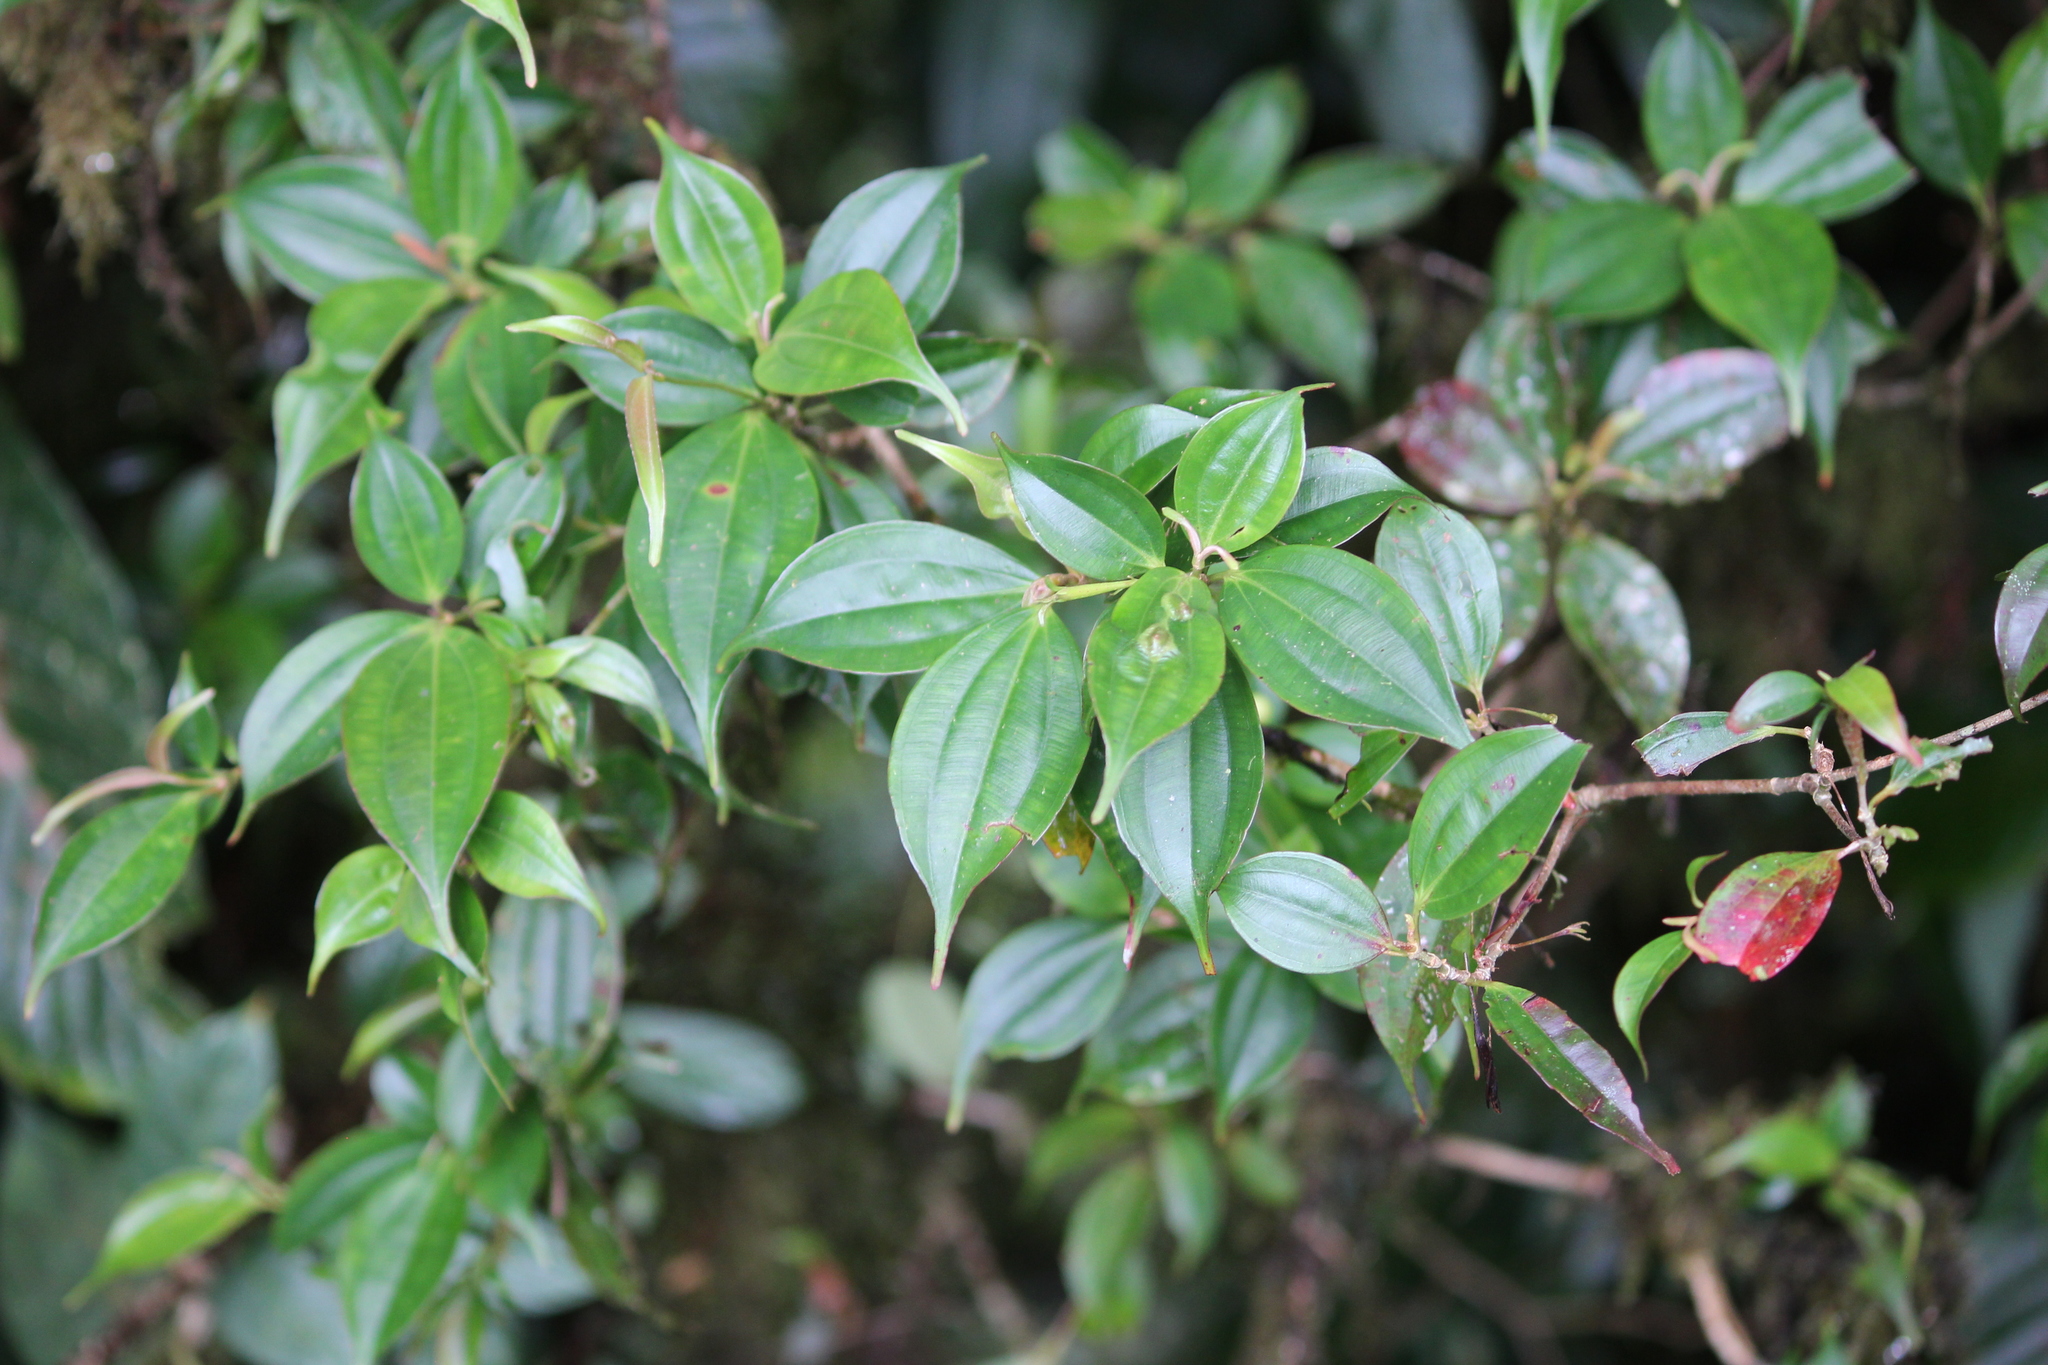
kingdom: Plantae
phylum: Tracheophyta
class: Magnoliopsida
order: Myrtales
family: Melastomataceae
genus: Blakea
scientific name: Blakea anomala
